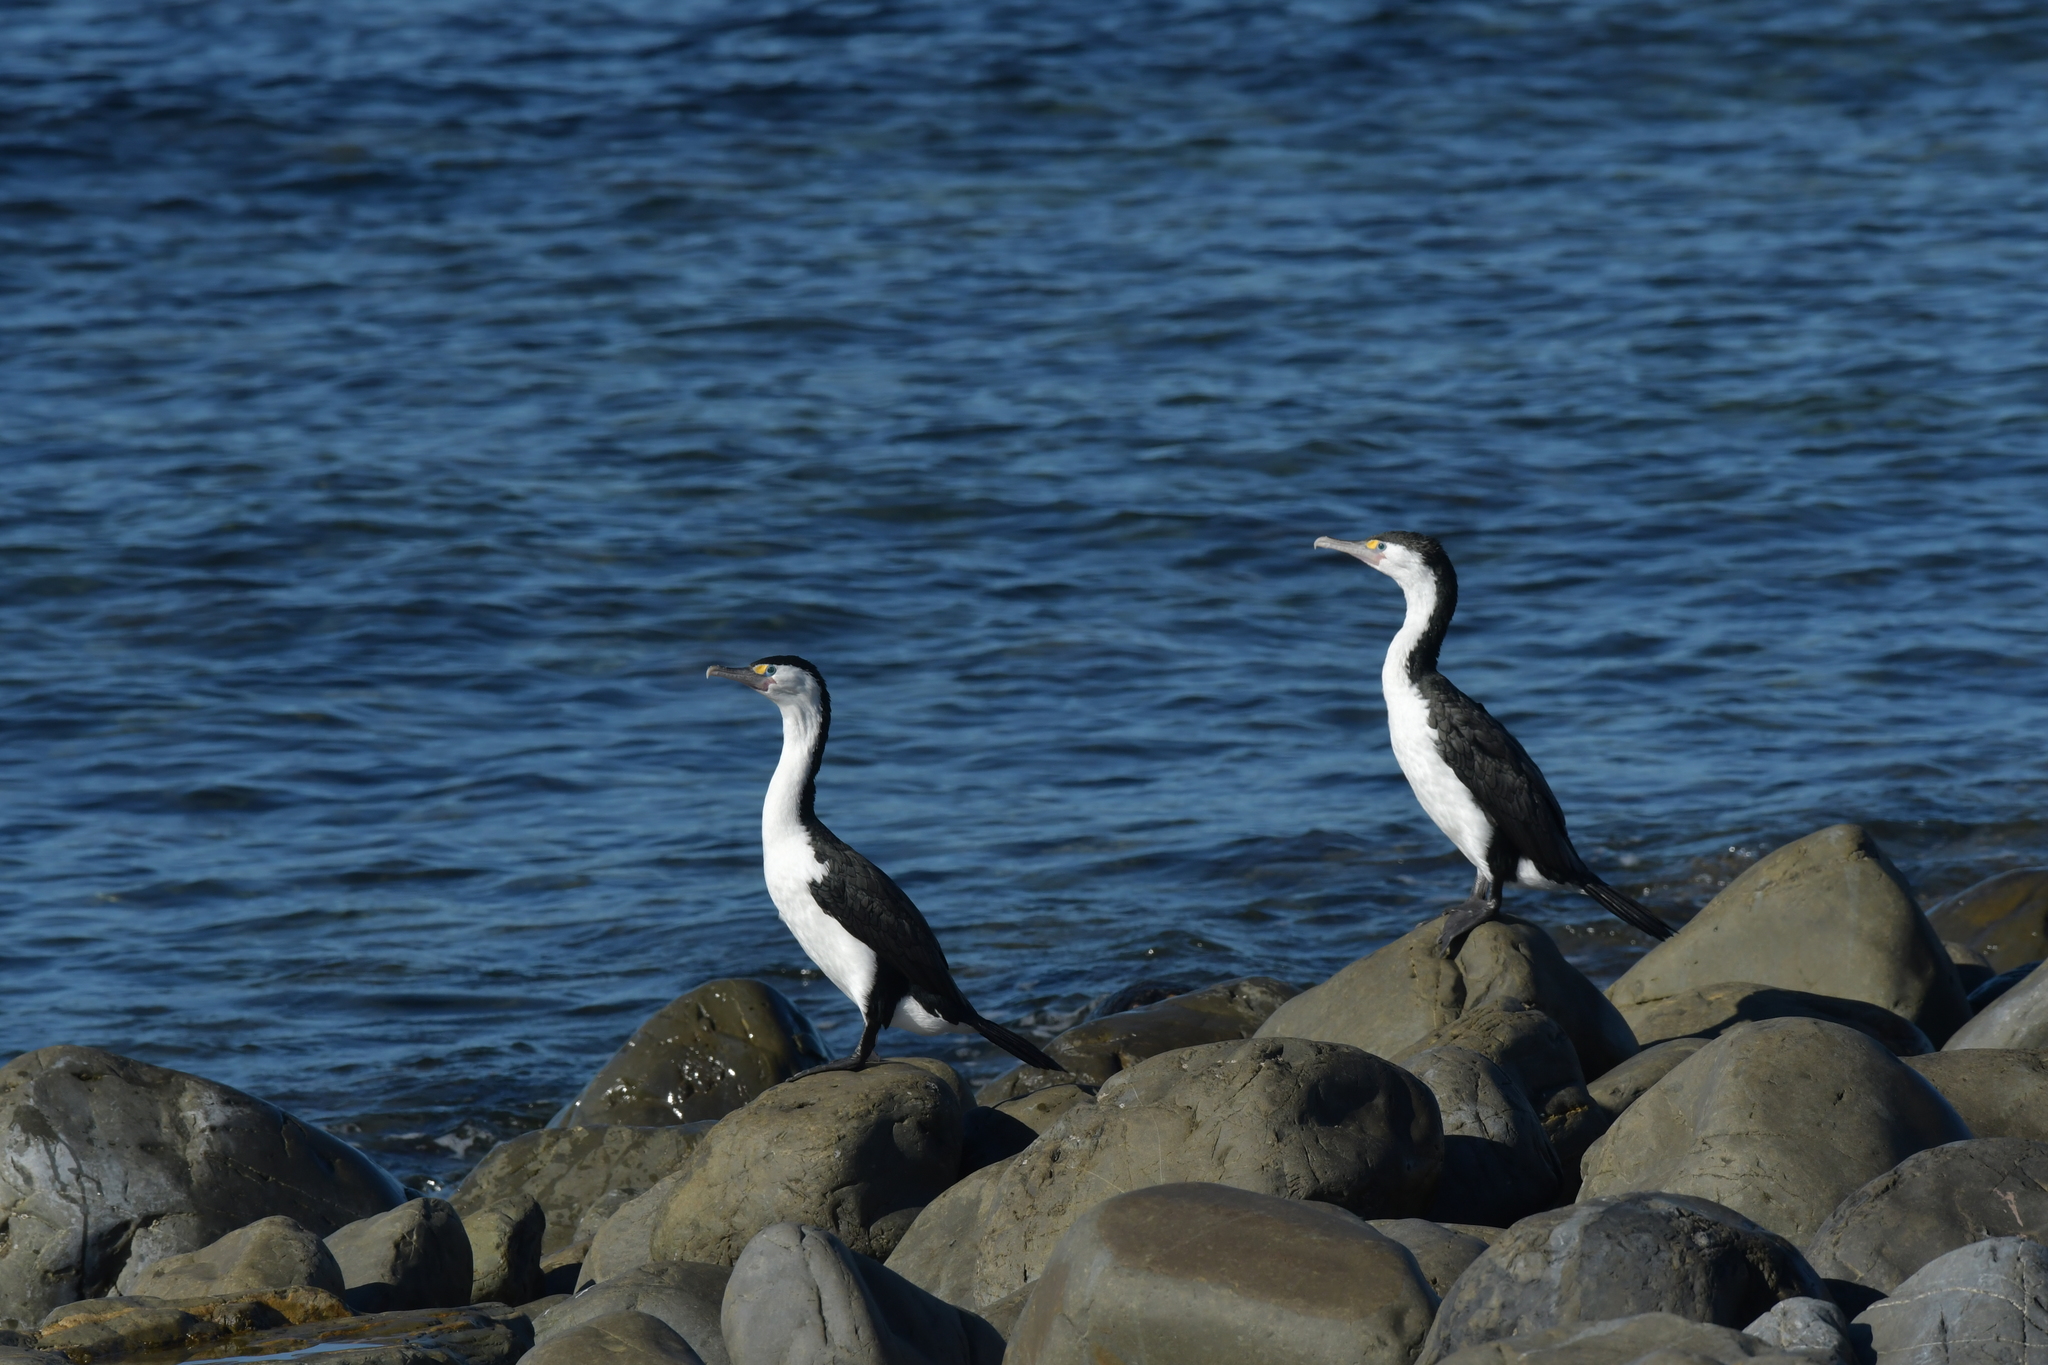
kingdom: Animalia
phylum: Chordata
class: Aves
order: Suliformes
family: Phalacrocoracidae
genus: Phalacrocorax
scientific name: Phalacrocorax varius
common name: Pied cormorant
